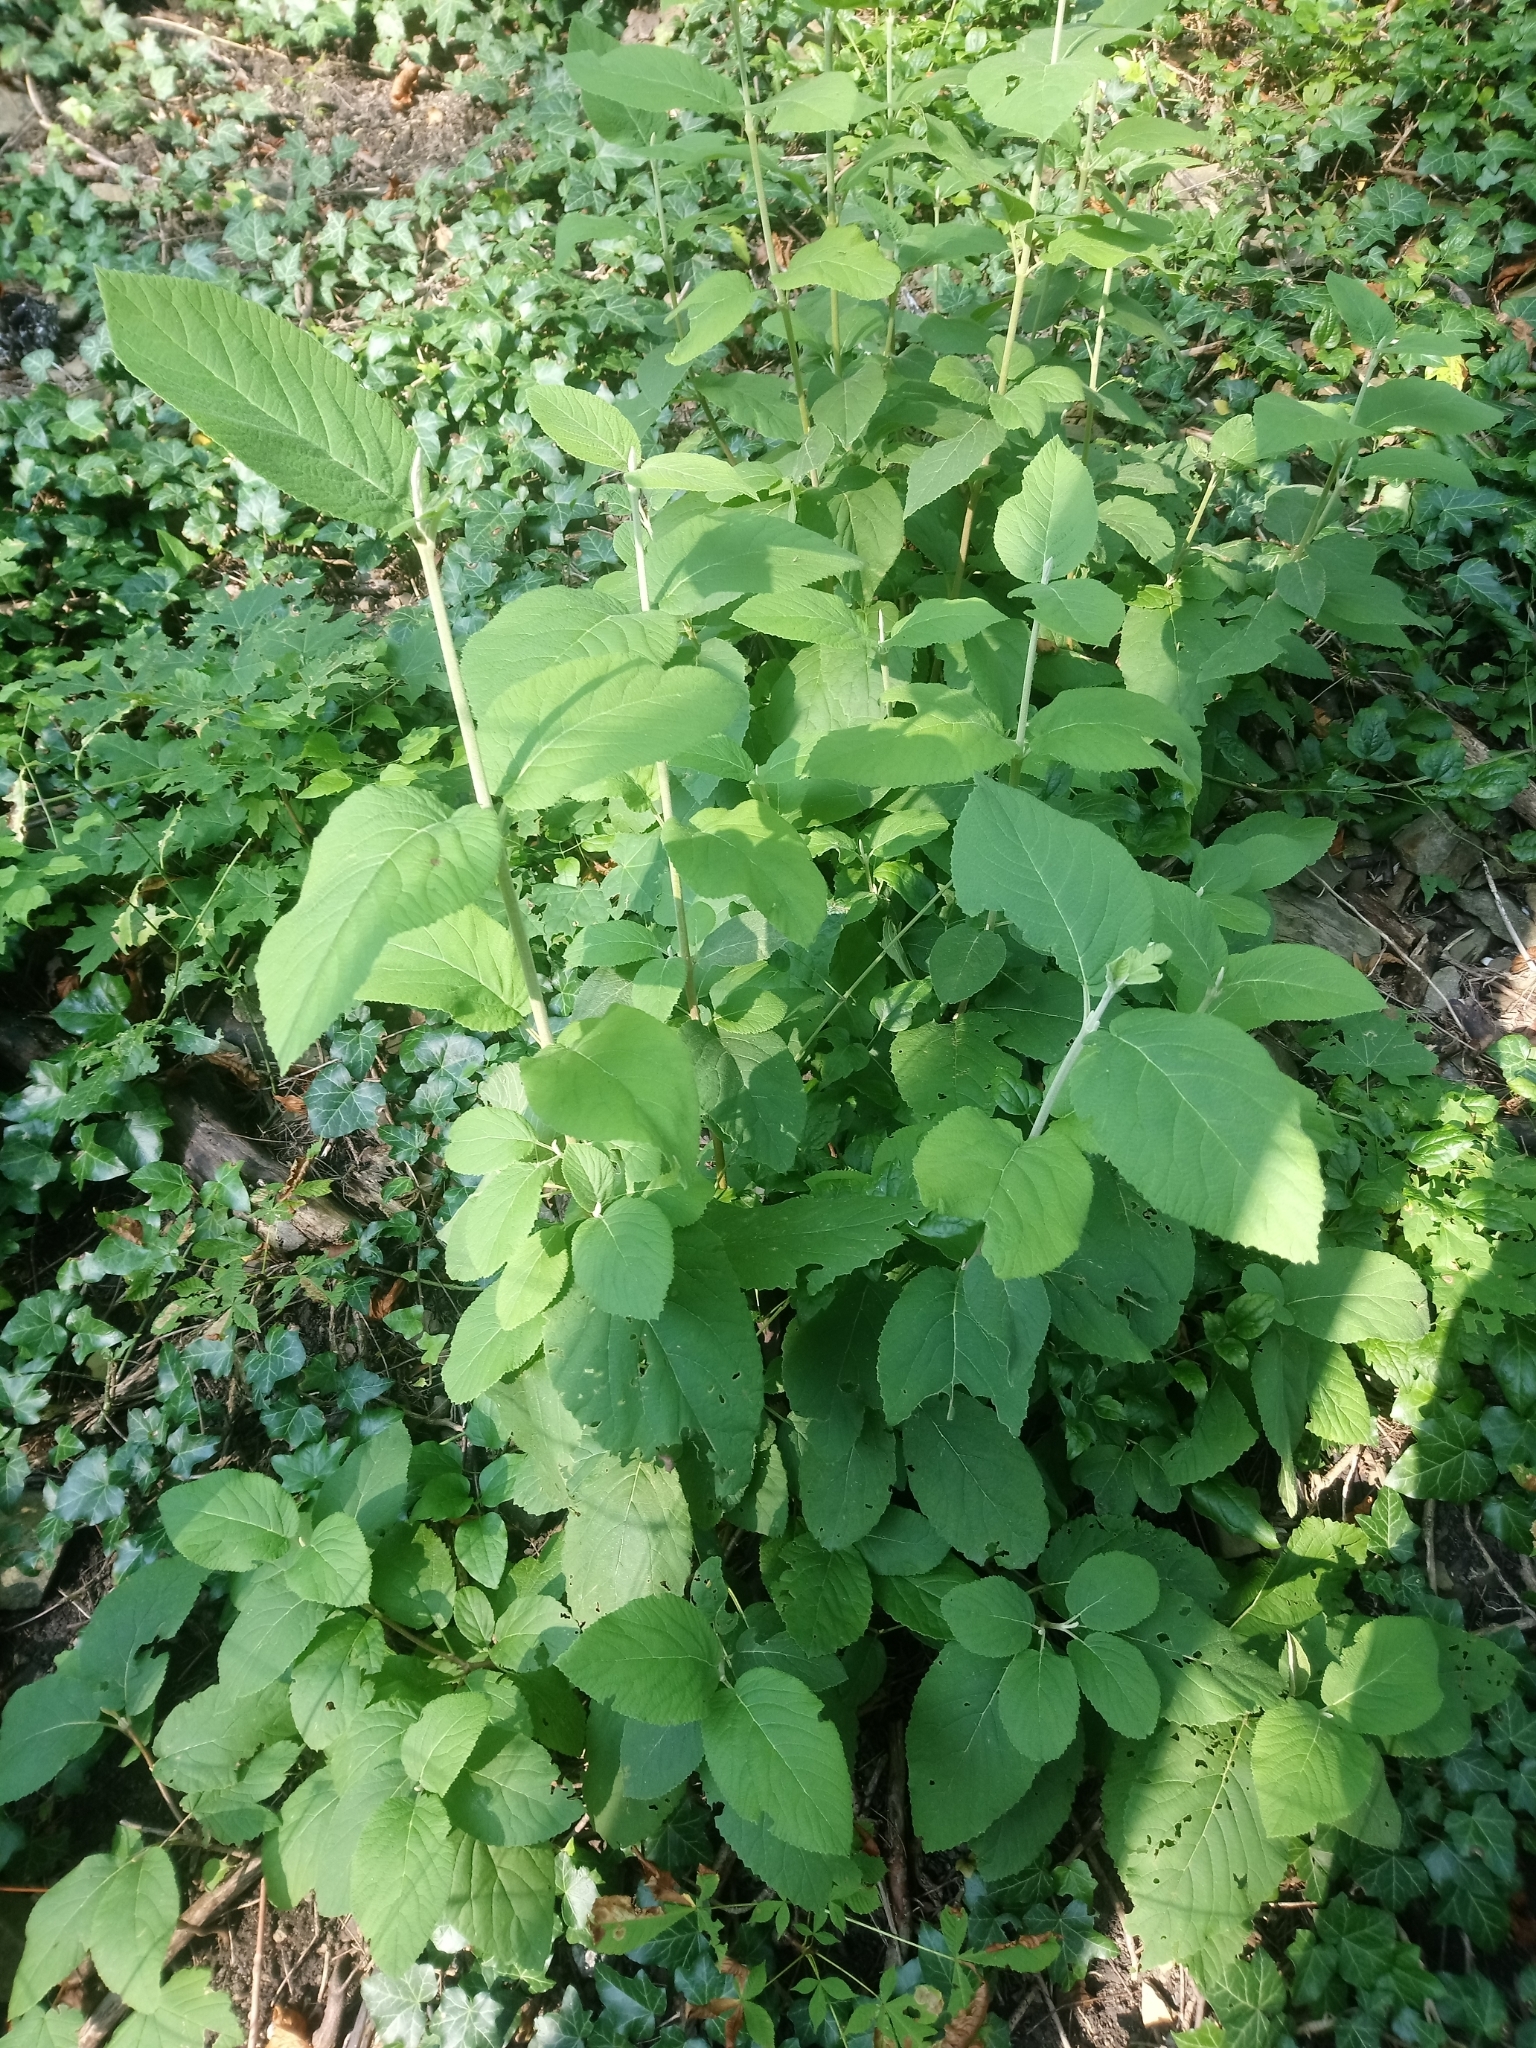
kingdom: Plantae
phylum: Tracheophyta
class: Magnoliopsida
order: Dipsacales
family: Viburnaceae
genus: Viburnum
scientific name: Viburnum lantana
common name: Wayfaring tree
